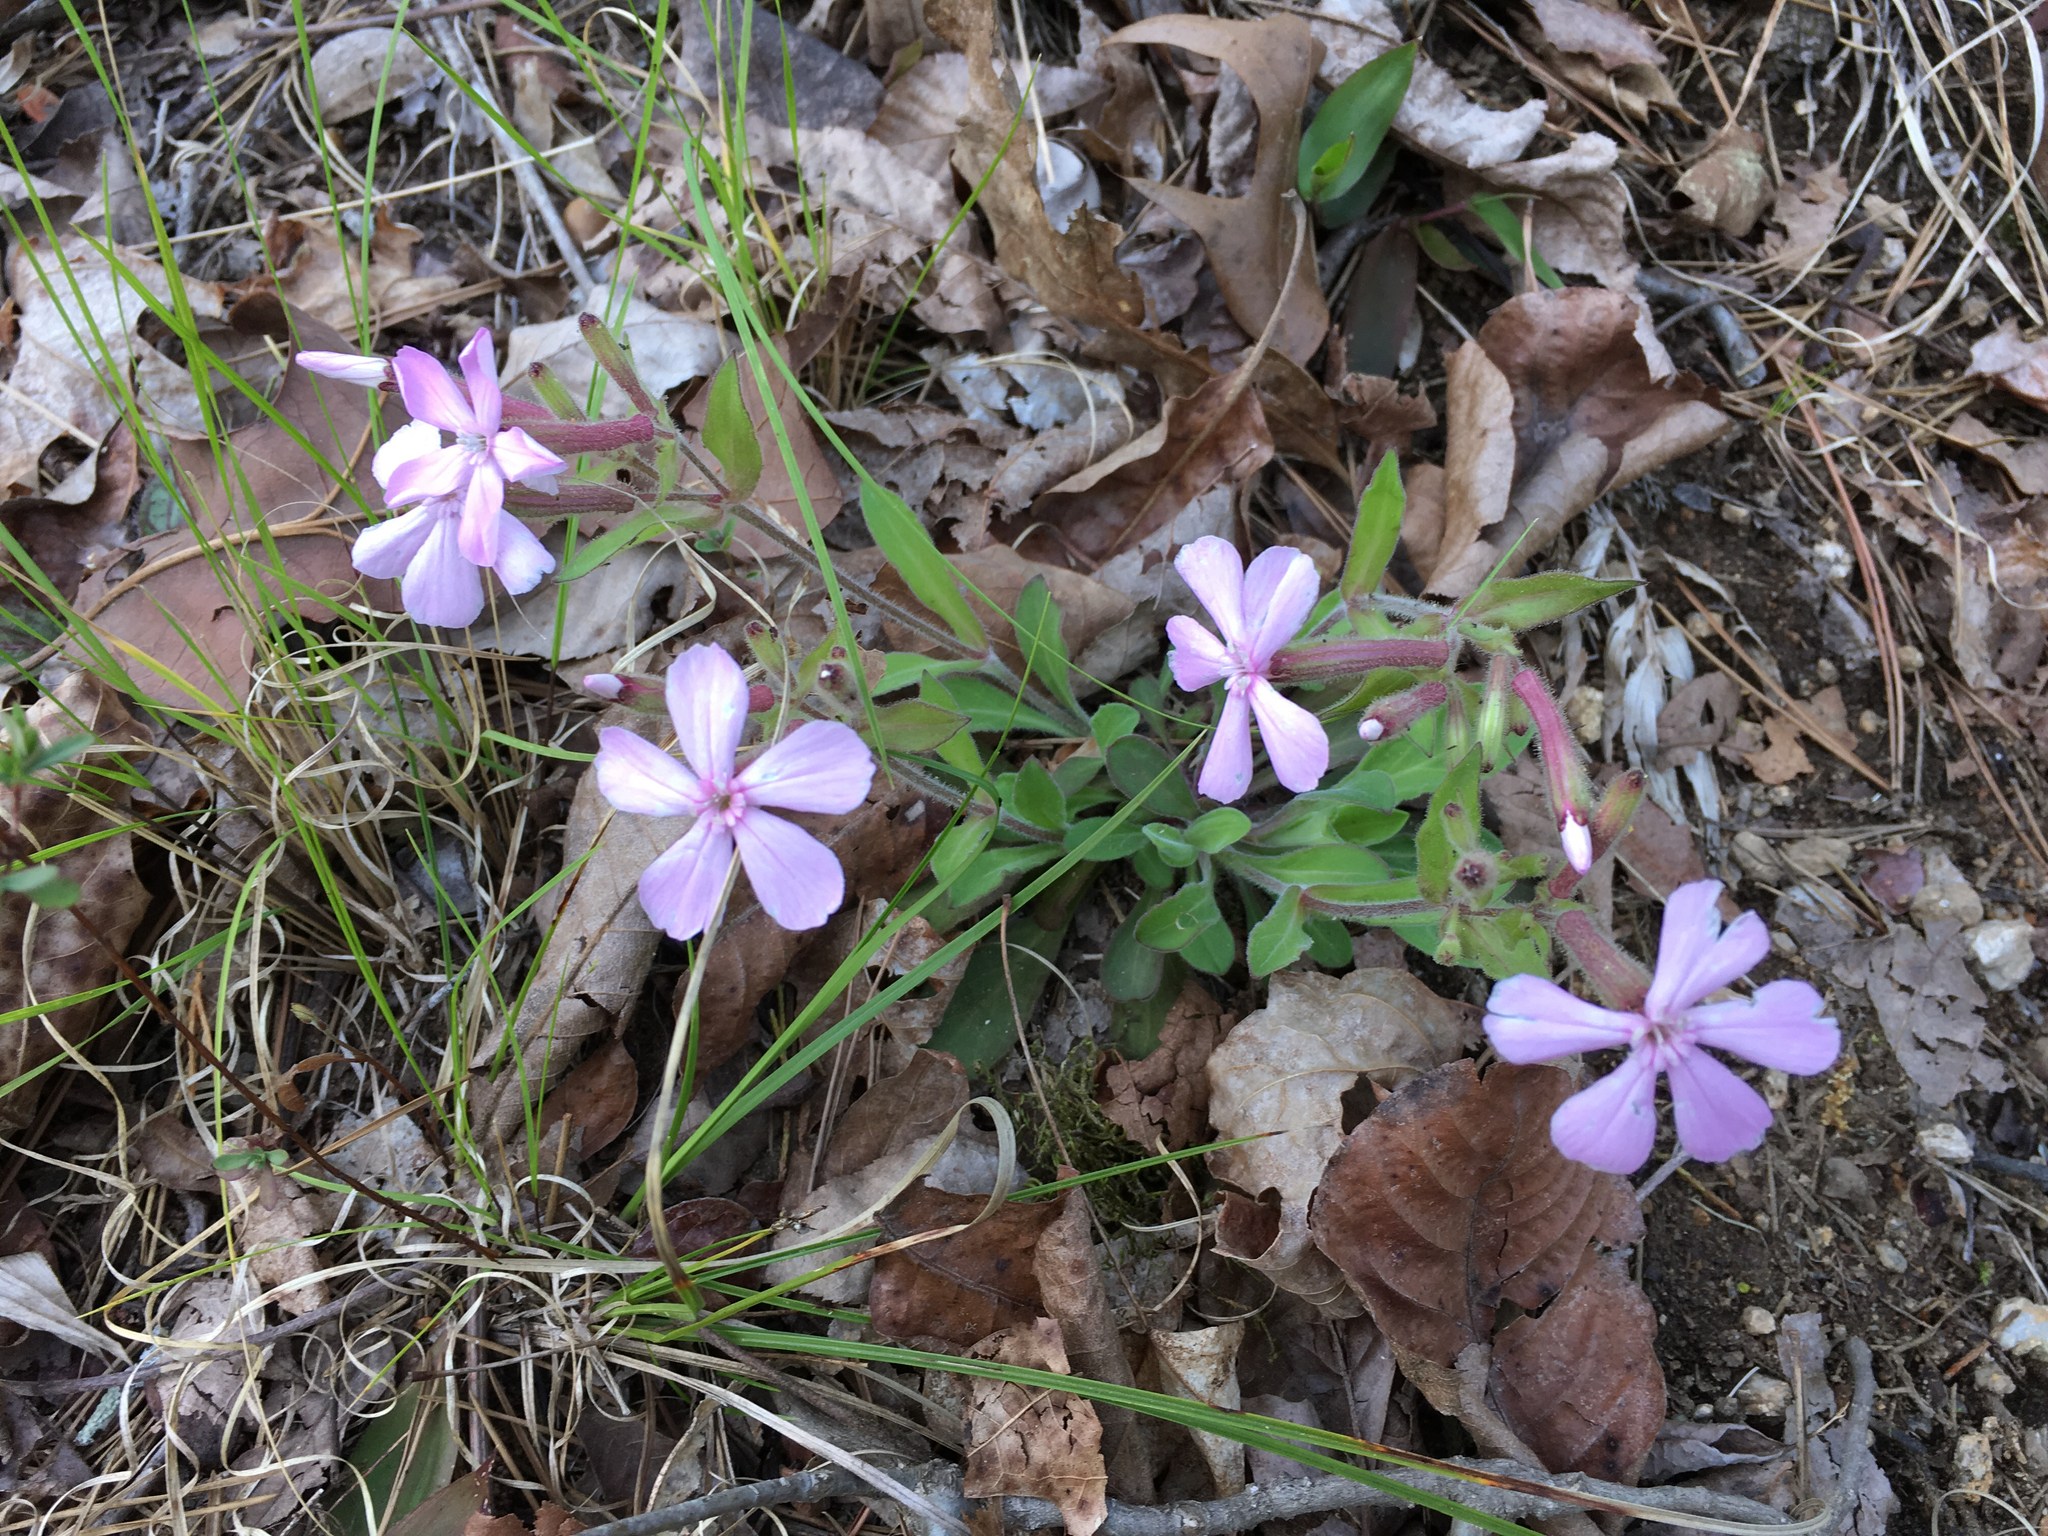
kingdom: Plantae
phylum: Tracheophyta
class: Magnoliopsida
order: Caryophyllales
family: Caryophyllaceae
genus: Silene
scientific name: Silene caroliniana
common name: Sticky catchfly
